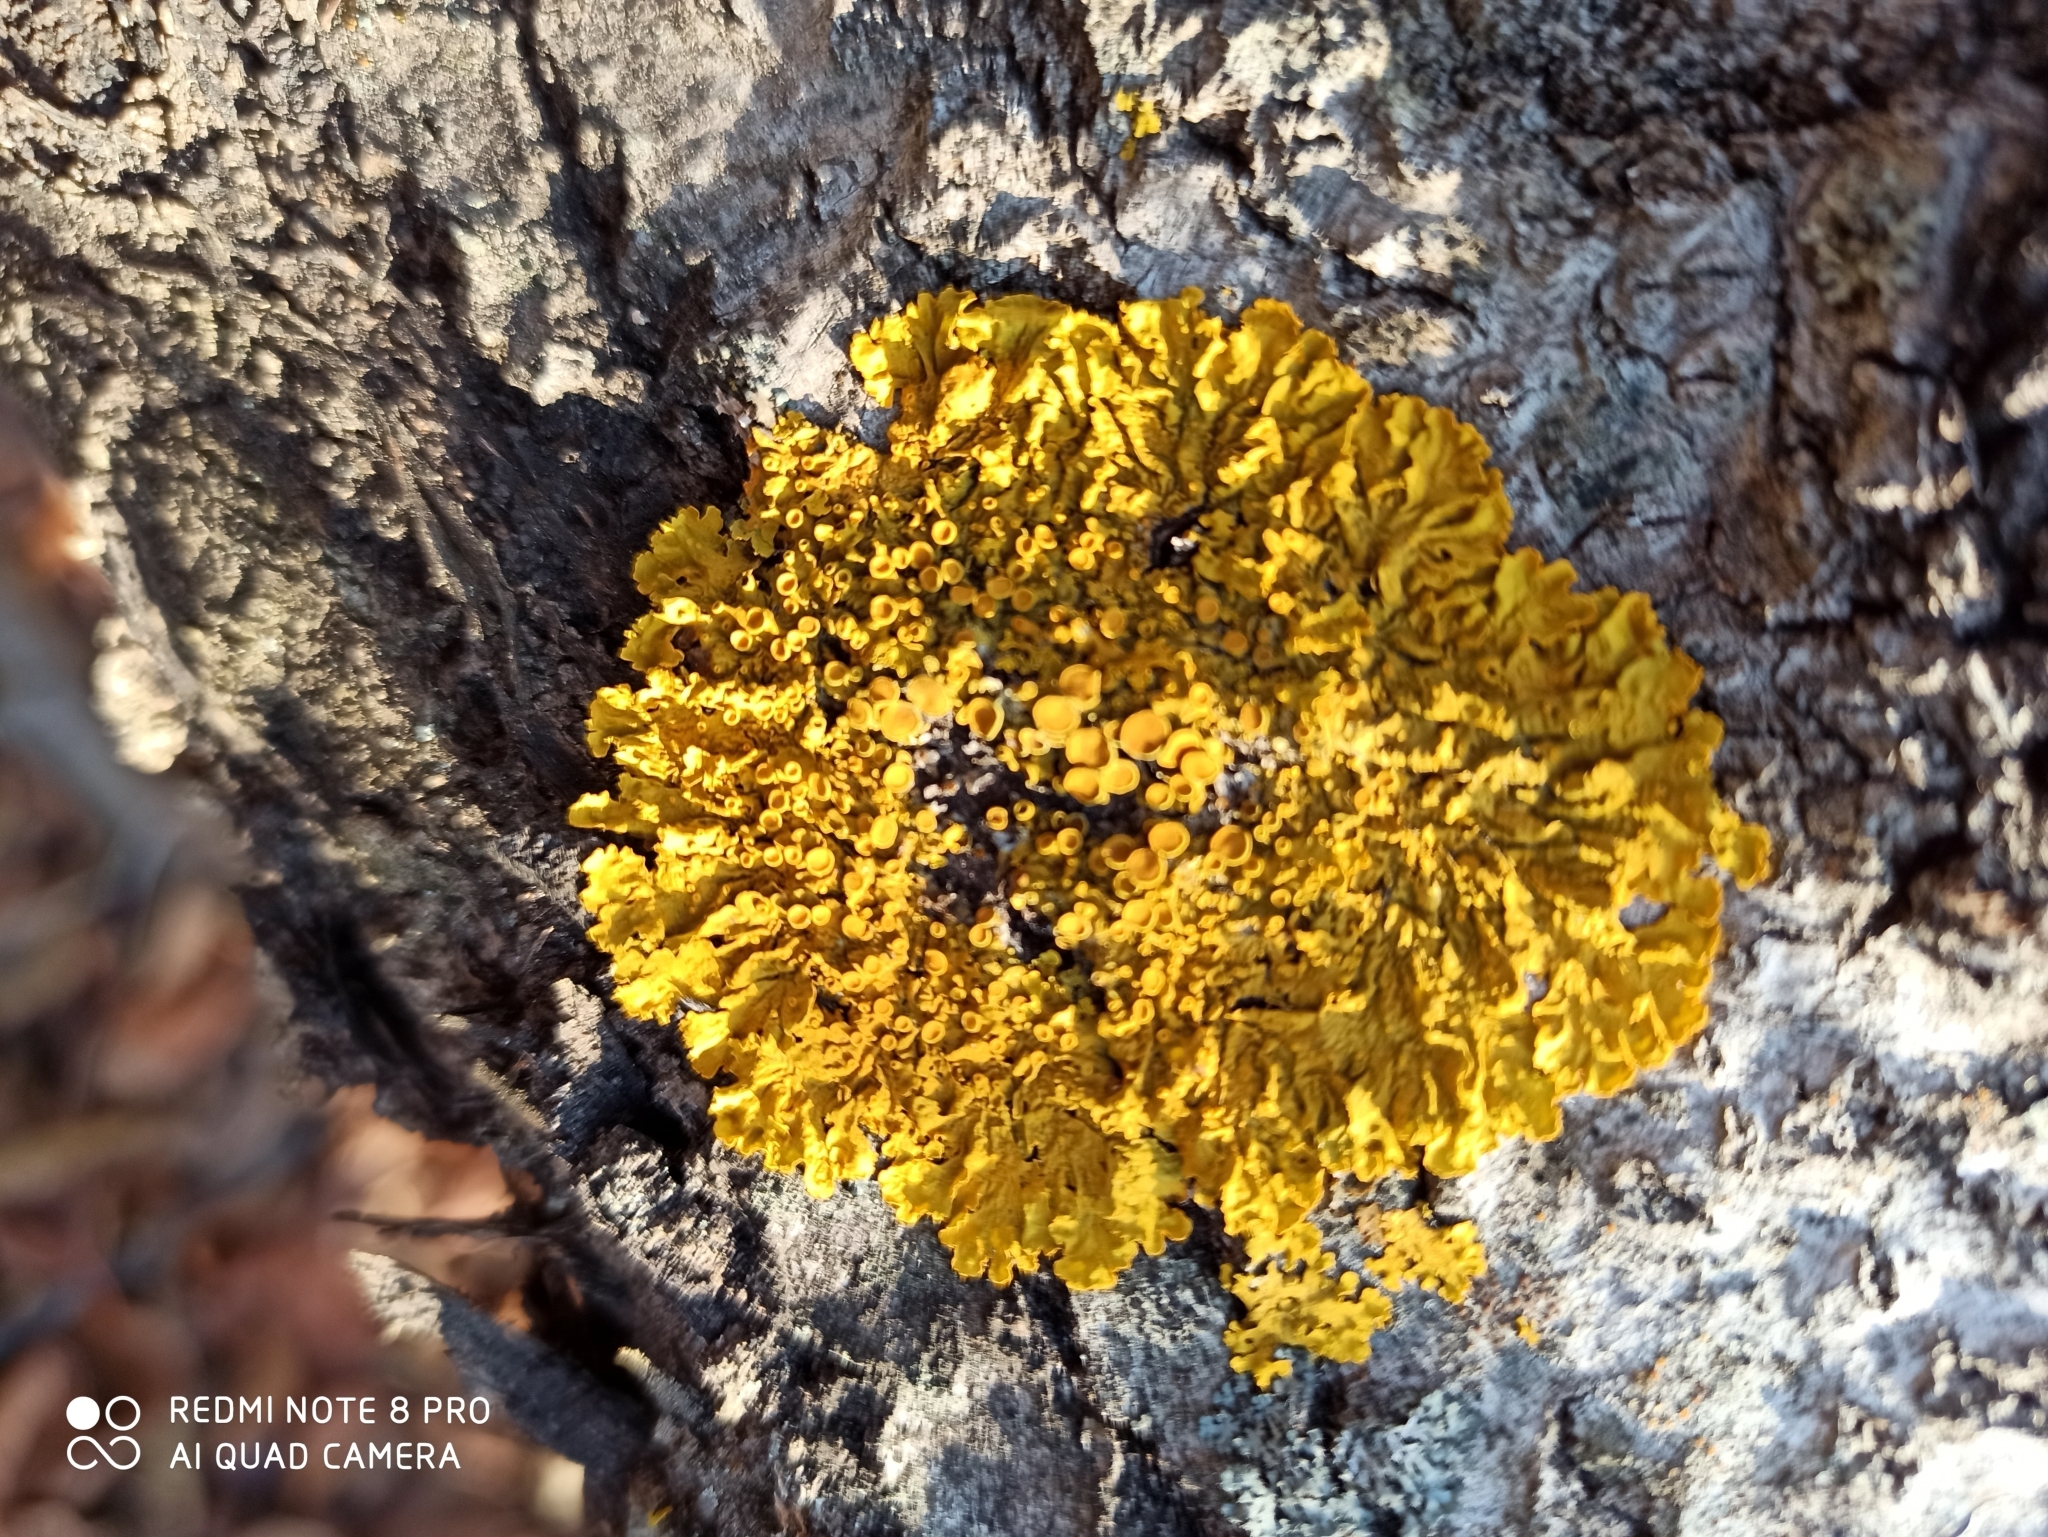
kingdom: Fungi
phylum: Ascomycota
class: Lecanoromycetes
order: Teloschistales
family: Teloschistaceae
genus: Xanthoria
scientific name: Xanthoria parietina
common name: Common orange lichen
